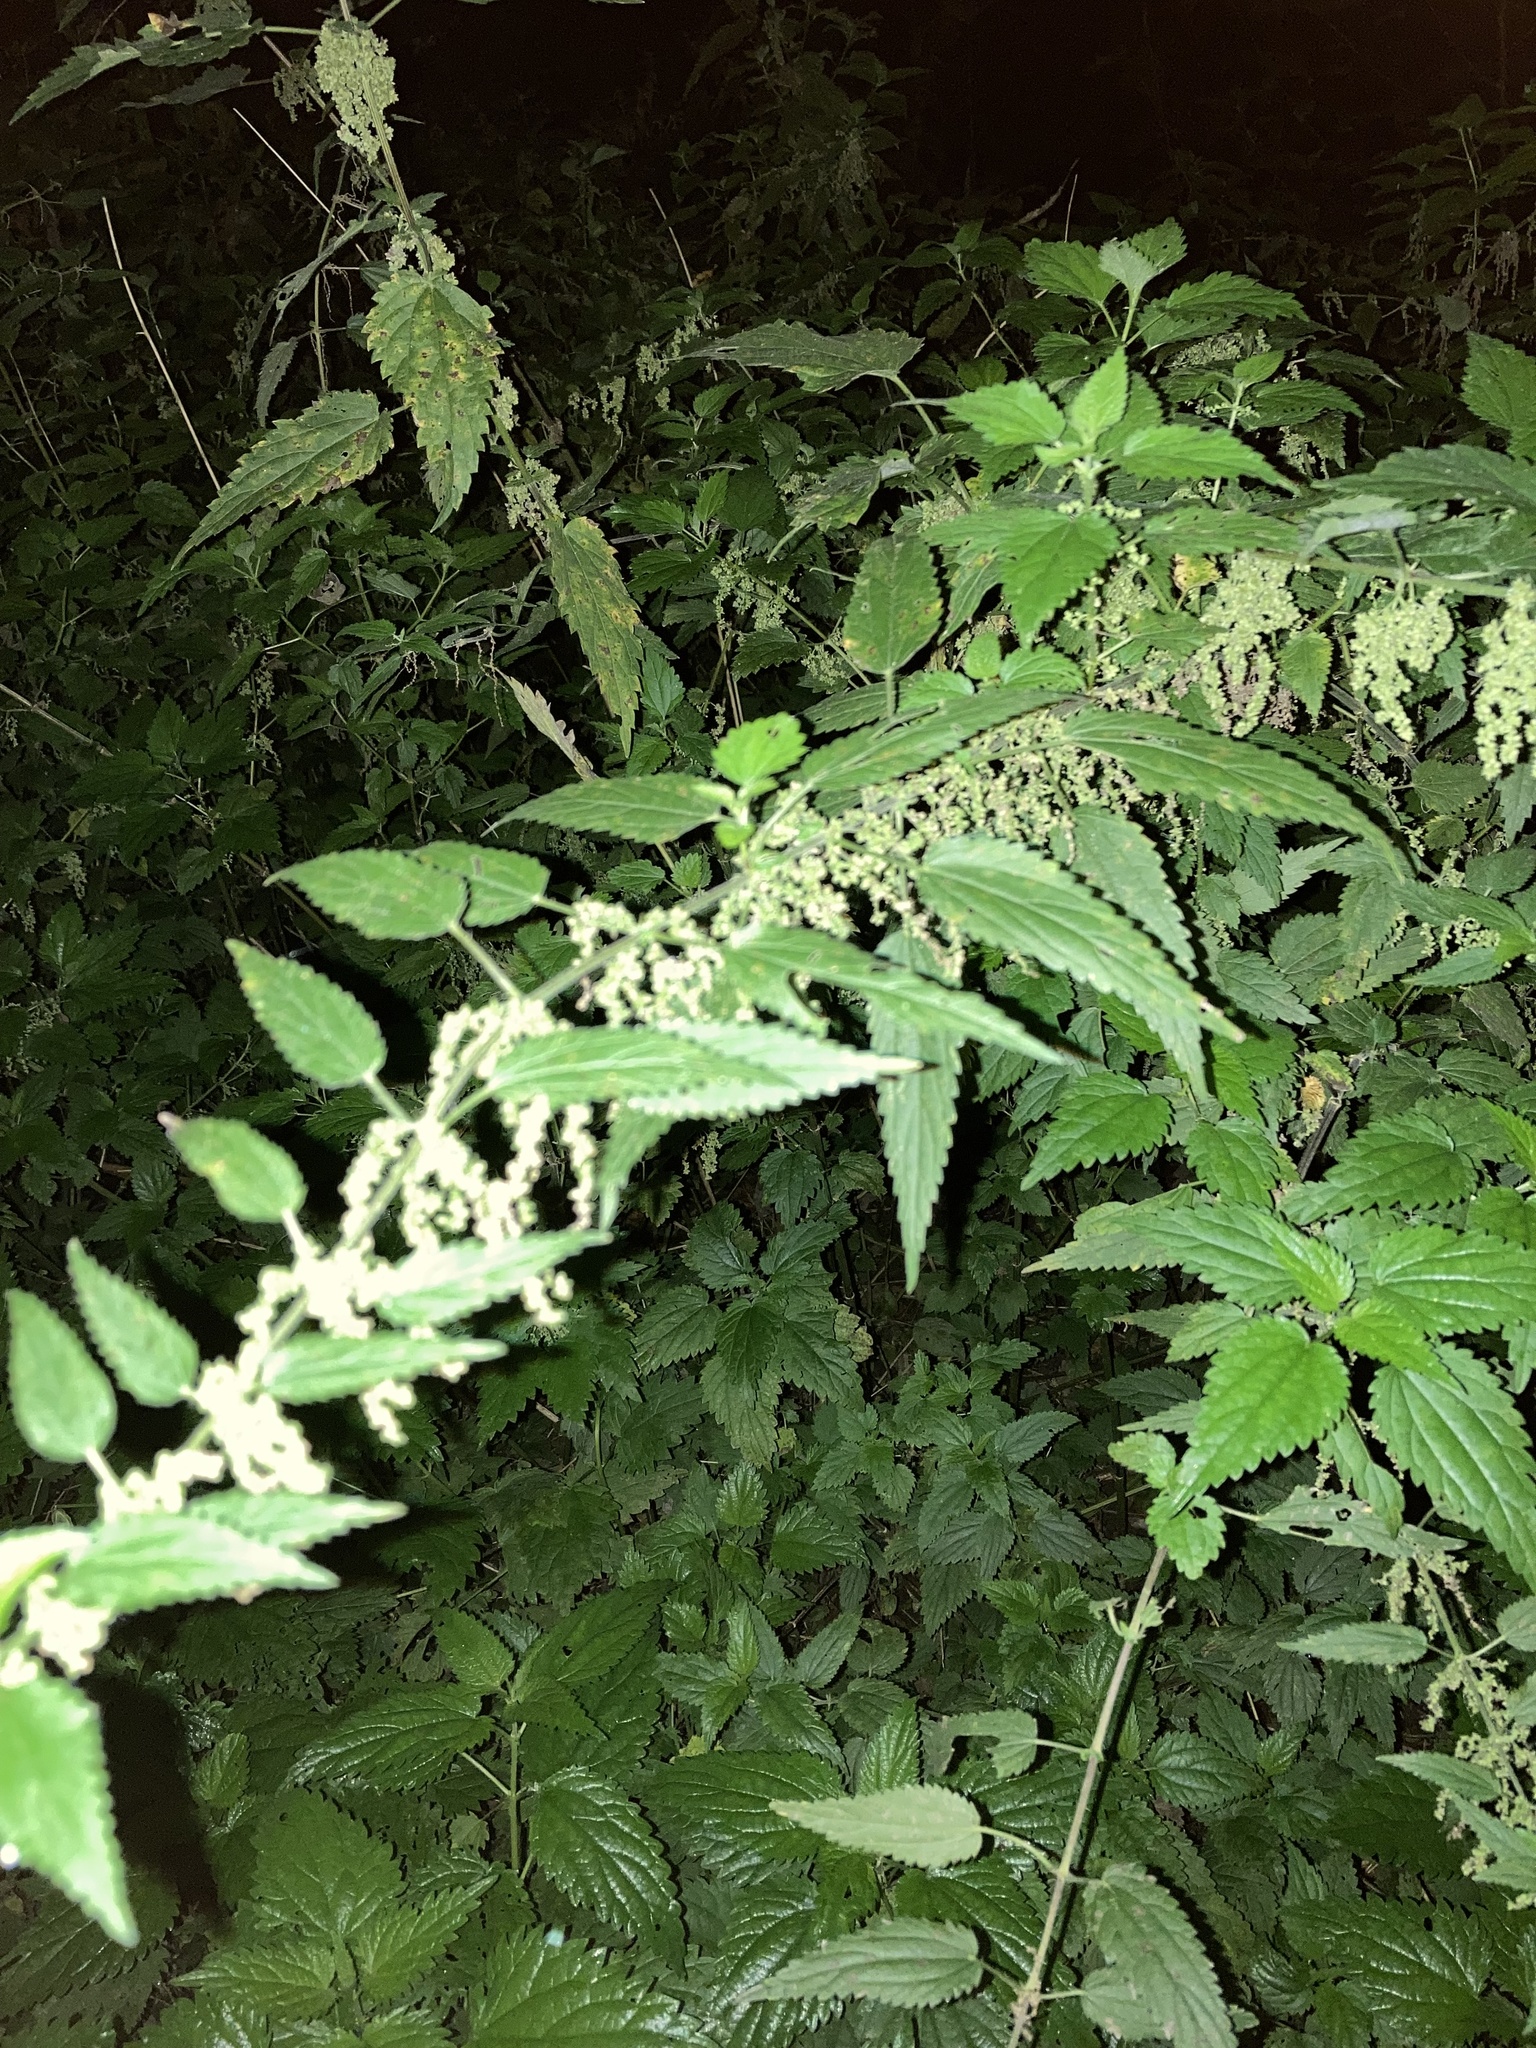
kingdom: Plantae
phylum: Tracheophyta
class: Magnoliopsida
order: Rosales
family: Urticaceae
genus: Urtica
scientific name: Urtica dioica
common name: Common nettle
